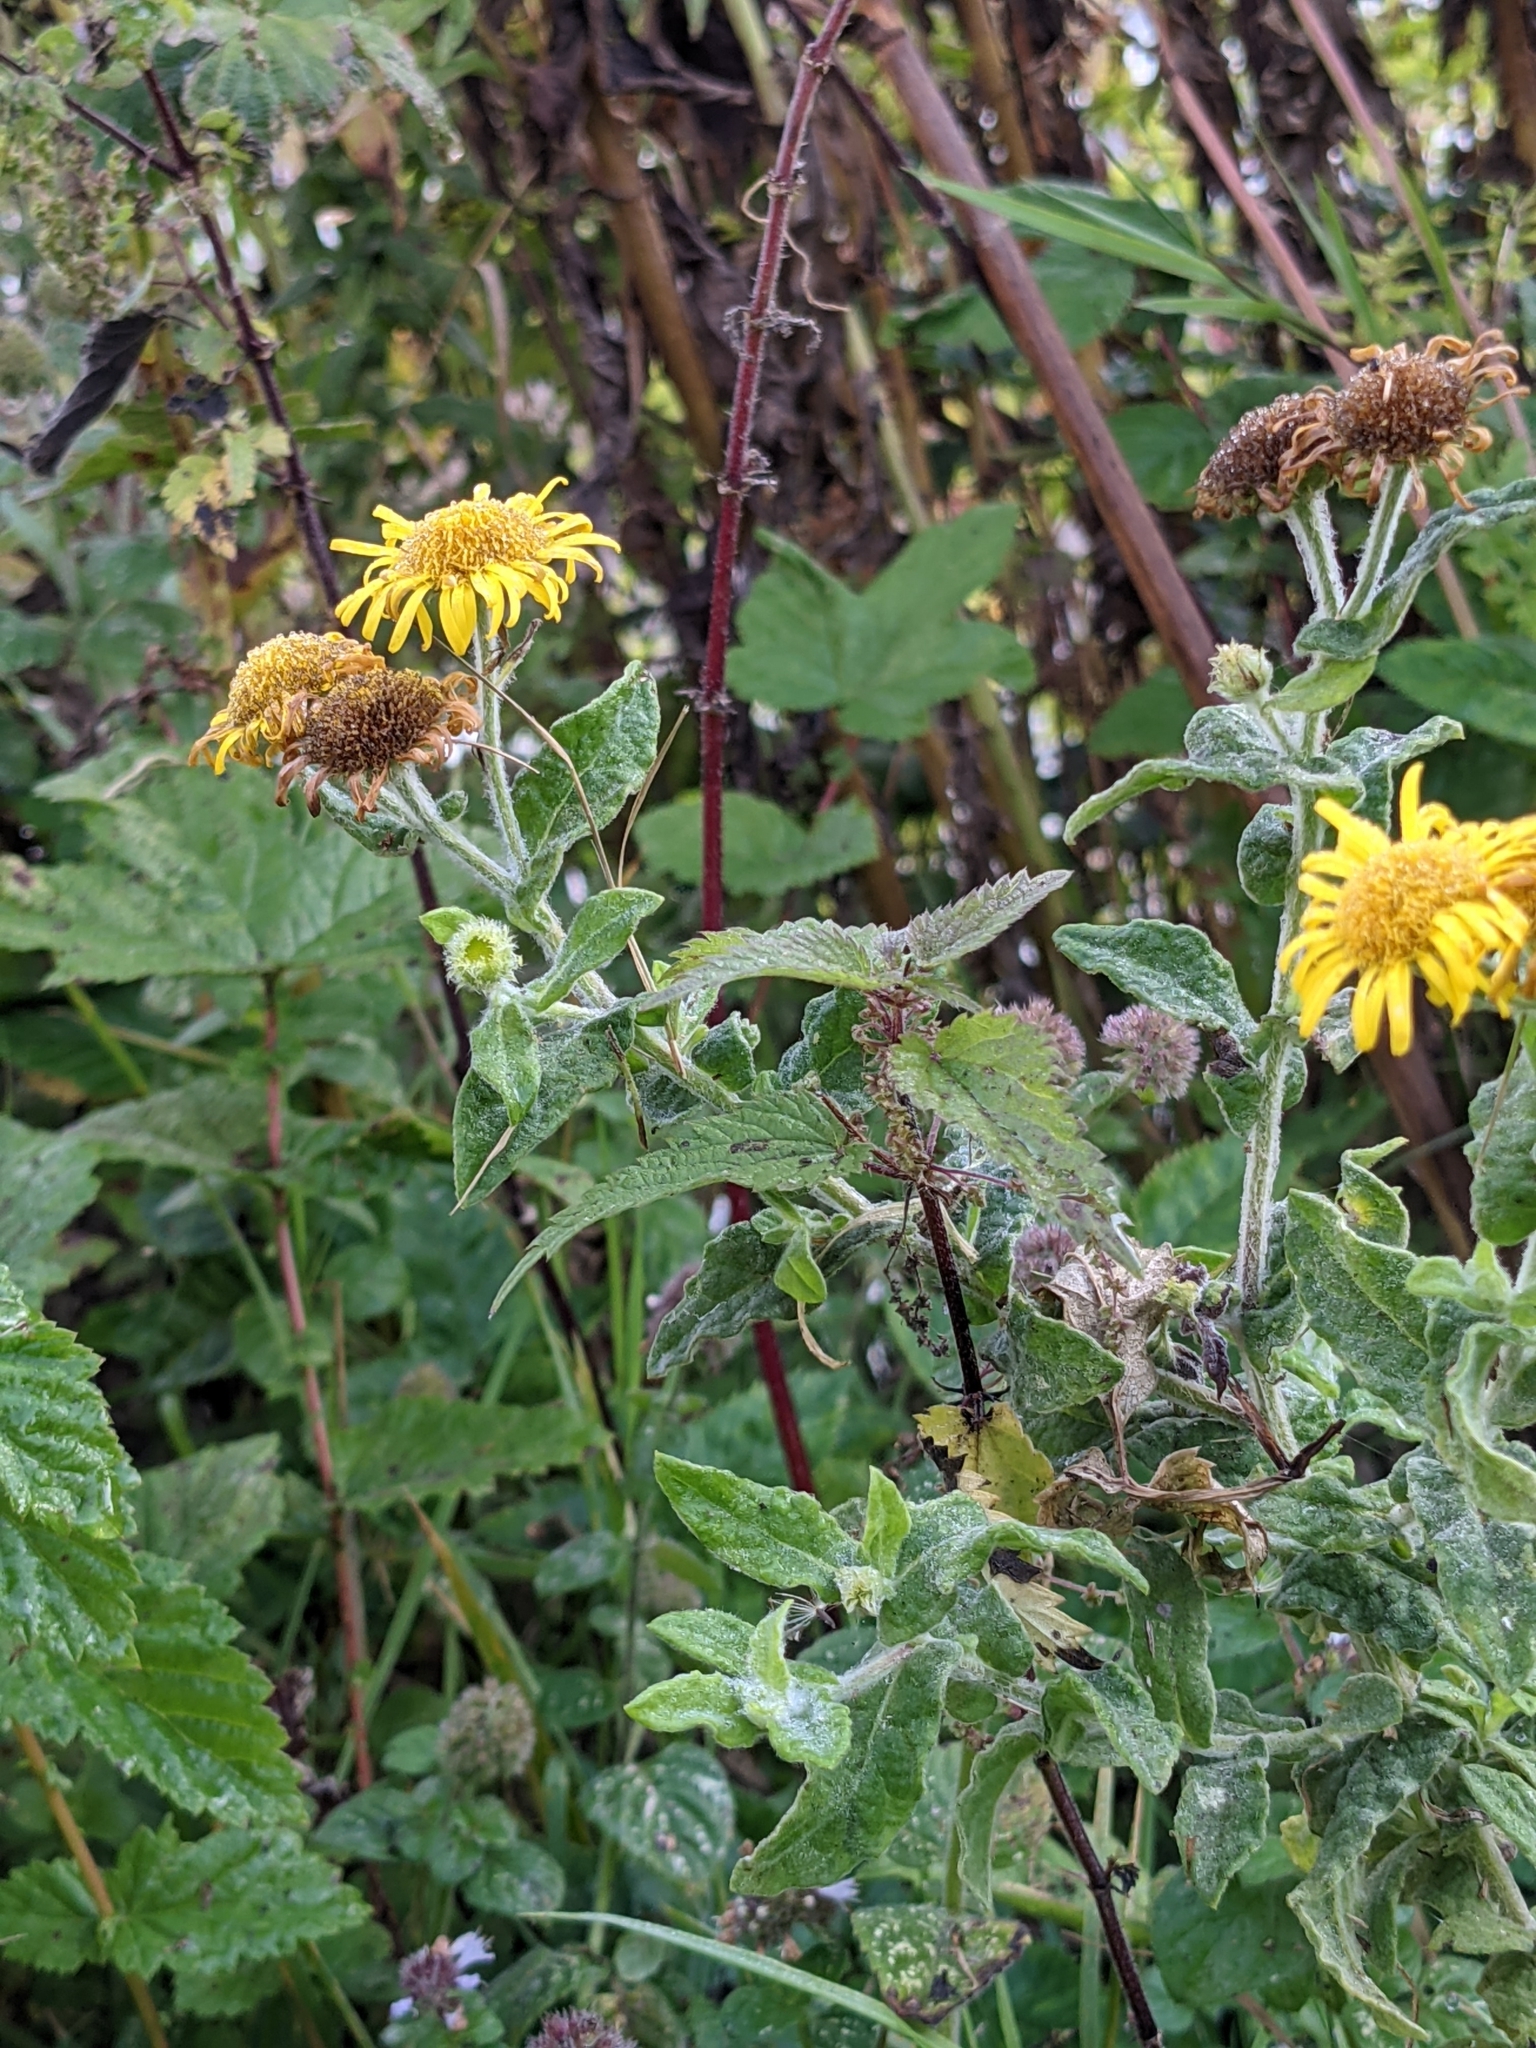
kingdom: Plantae
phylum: Tracheophyta
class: Magnoliopsida
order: Asterales
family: Asteraceae
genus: Pulicaria
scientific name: Pulicaria dysenterica
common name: Common fleabane
